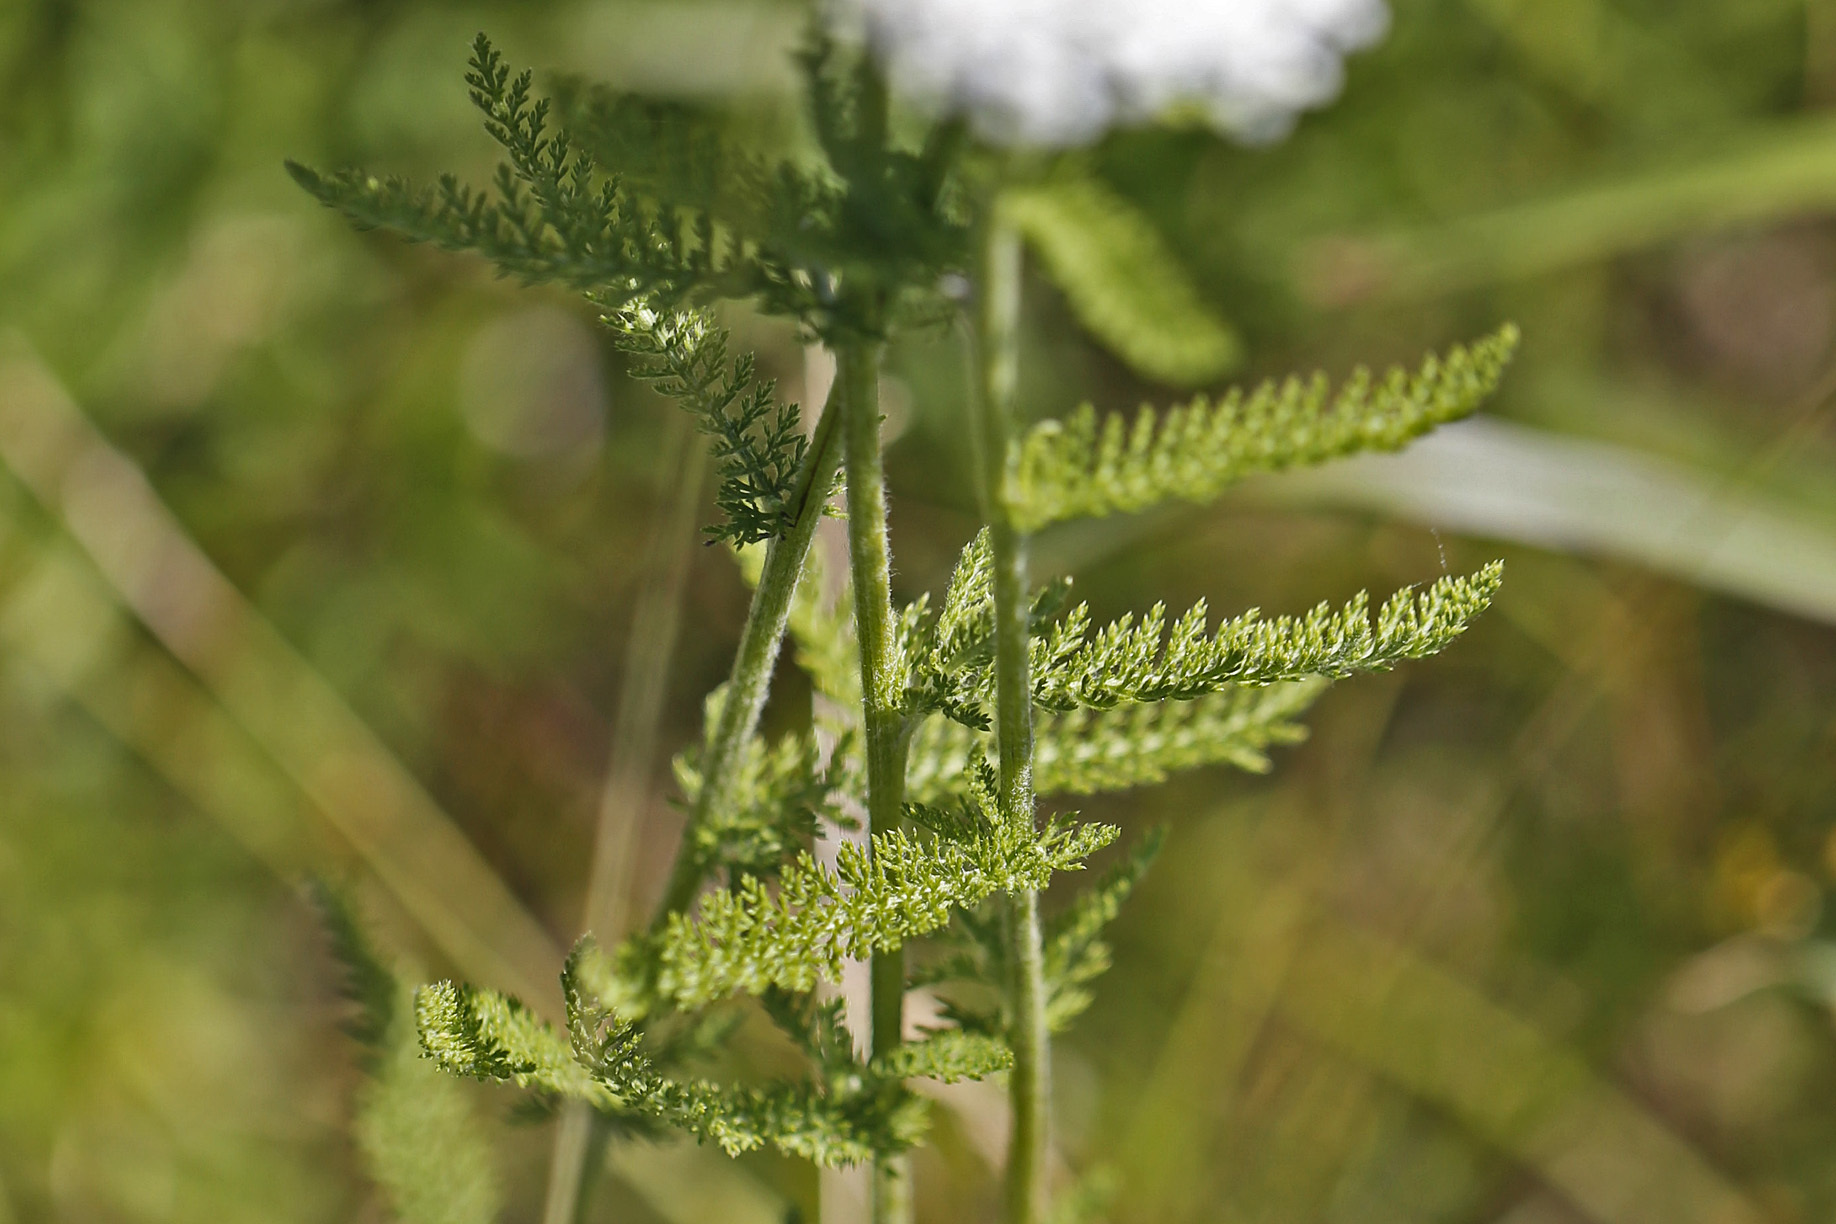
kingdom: Plantae
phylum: Tracheophyta
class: Magnoliopsida
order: Asterales
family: Asteraceae
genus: Achillea
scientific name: Achillea millefolium
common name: Yarrow
